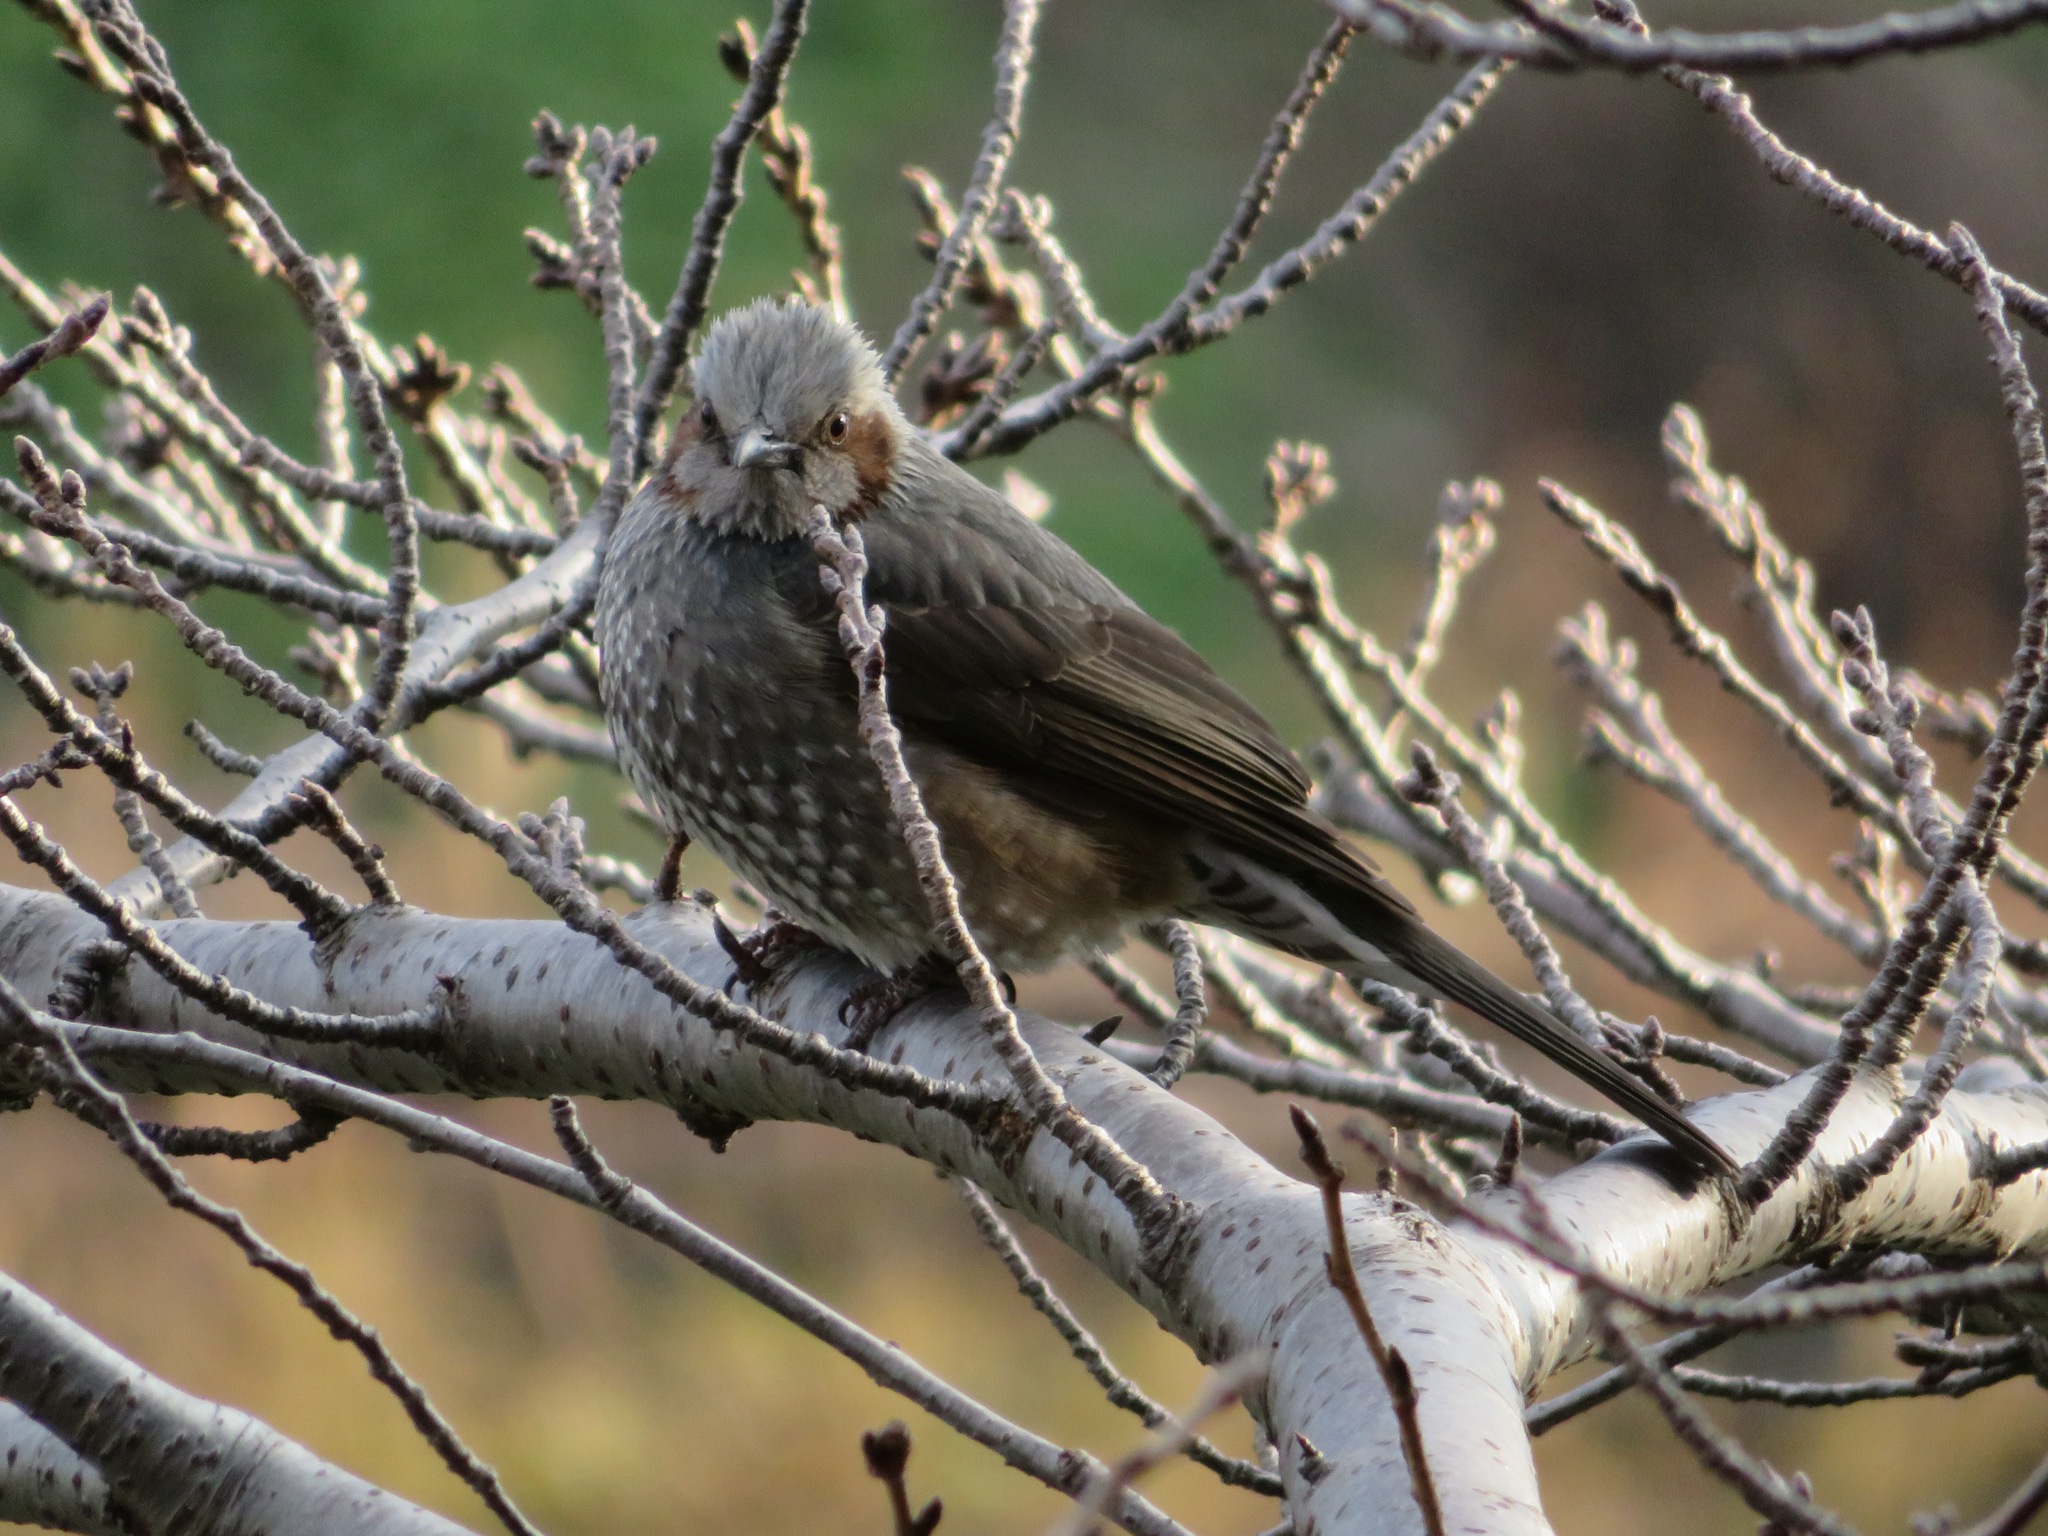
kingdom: Animalia
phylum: Chordata
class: Aves
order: Passeriformes
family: Pycnonotidae
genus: Hypsipetes
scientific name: Hypsipetes amaurotis
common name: Brown-eared bulbul
